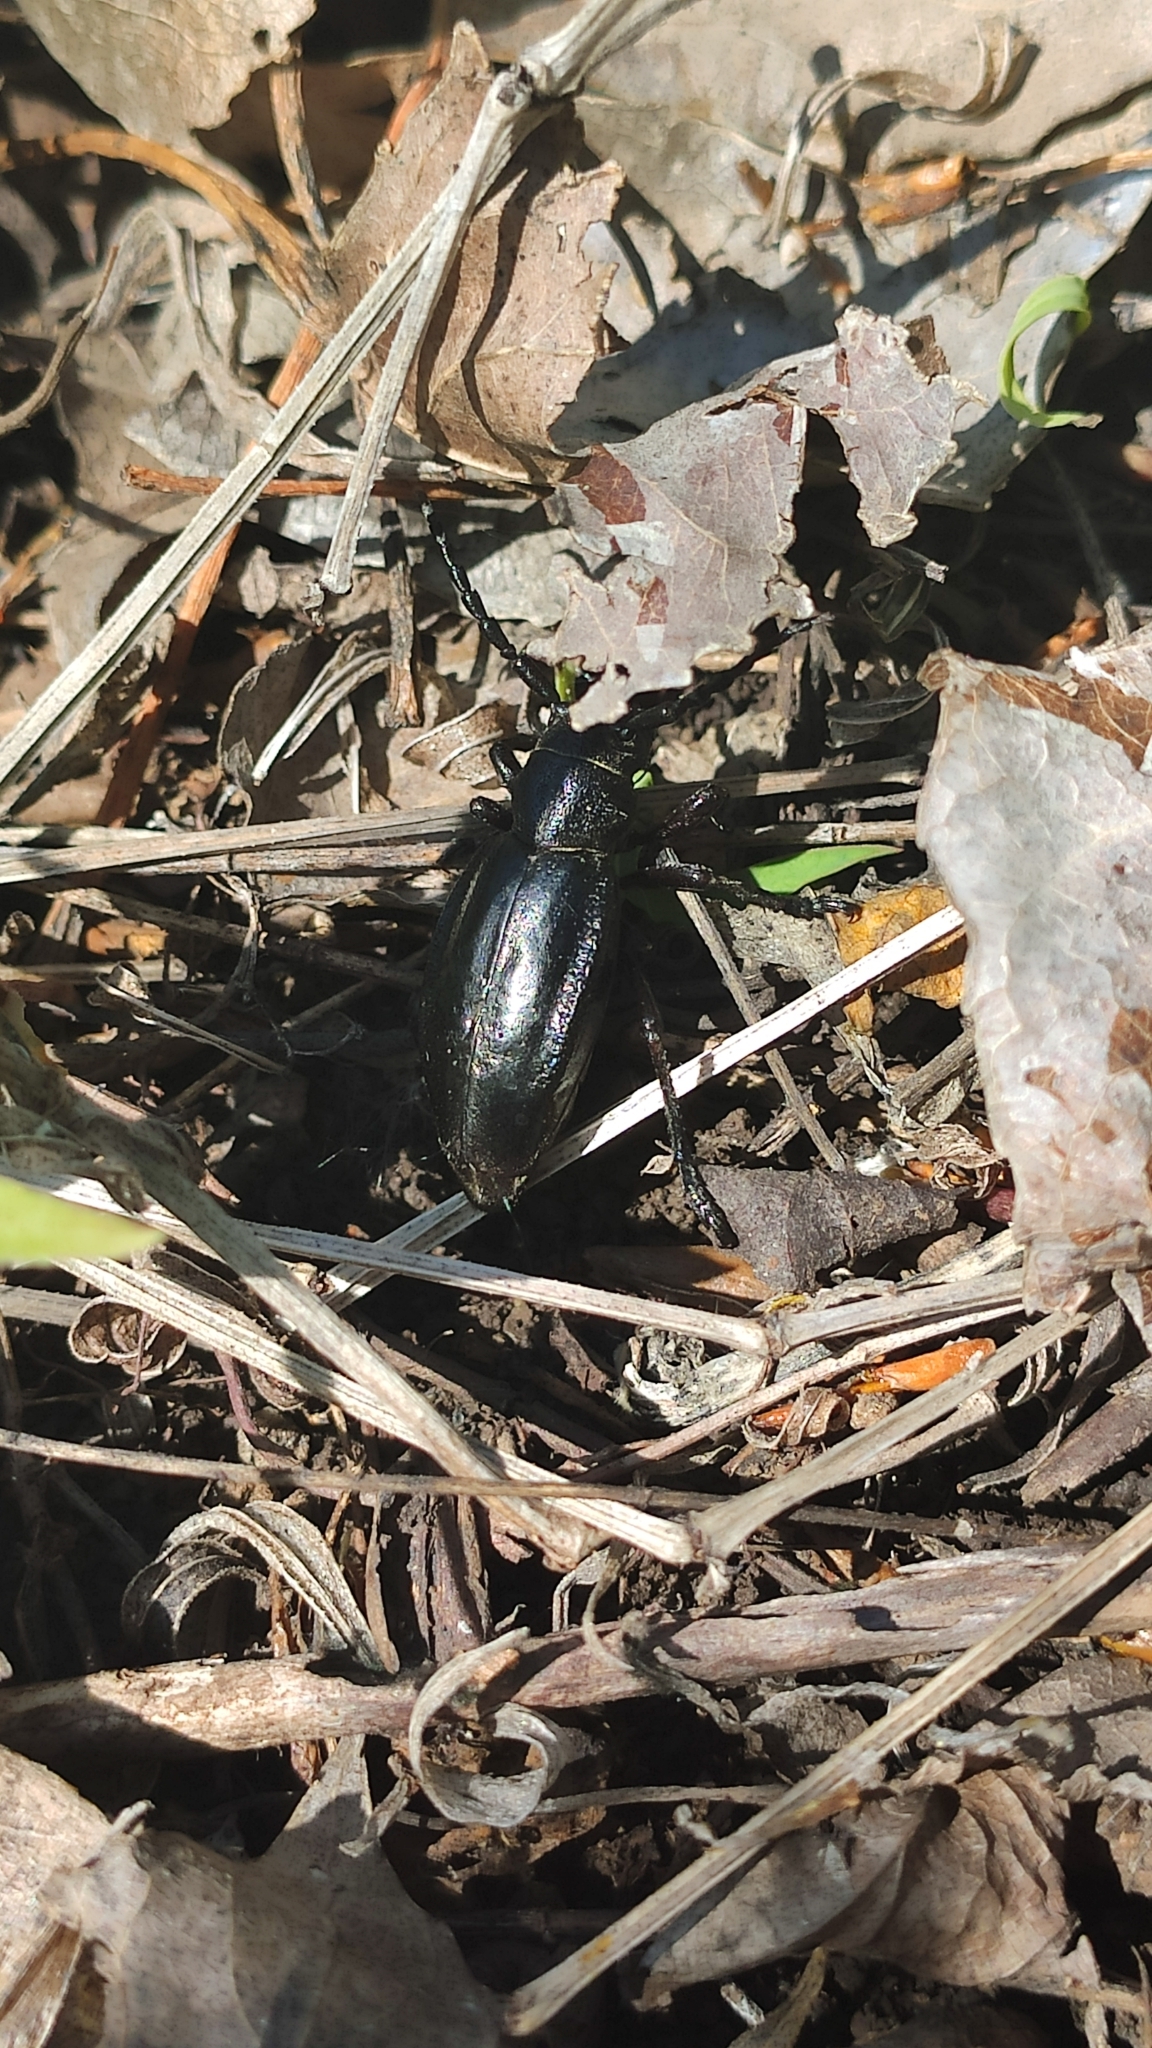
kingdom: Animalia
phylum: Arthropoda
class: Insecta
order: Coleoptera
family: Cerambycidae
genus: Dorcadion
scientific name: Dorcadion carinatum
